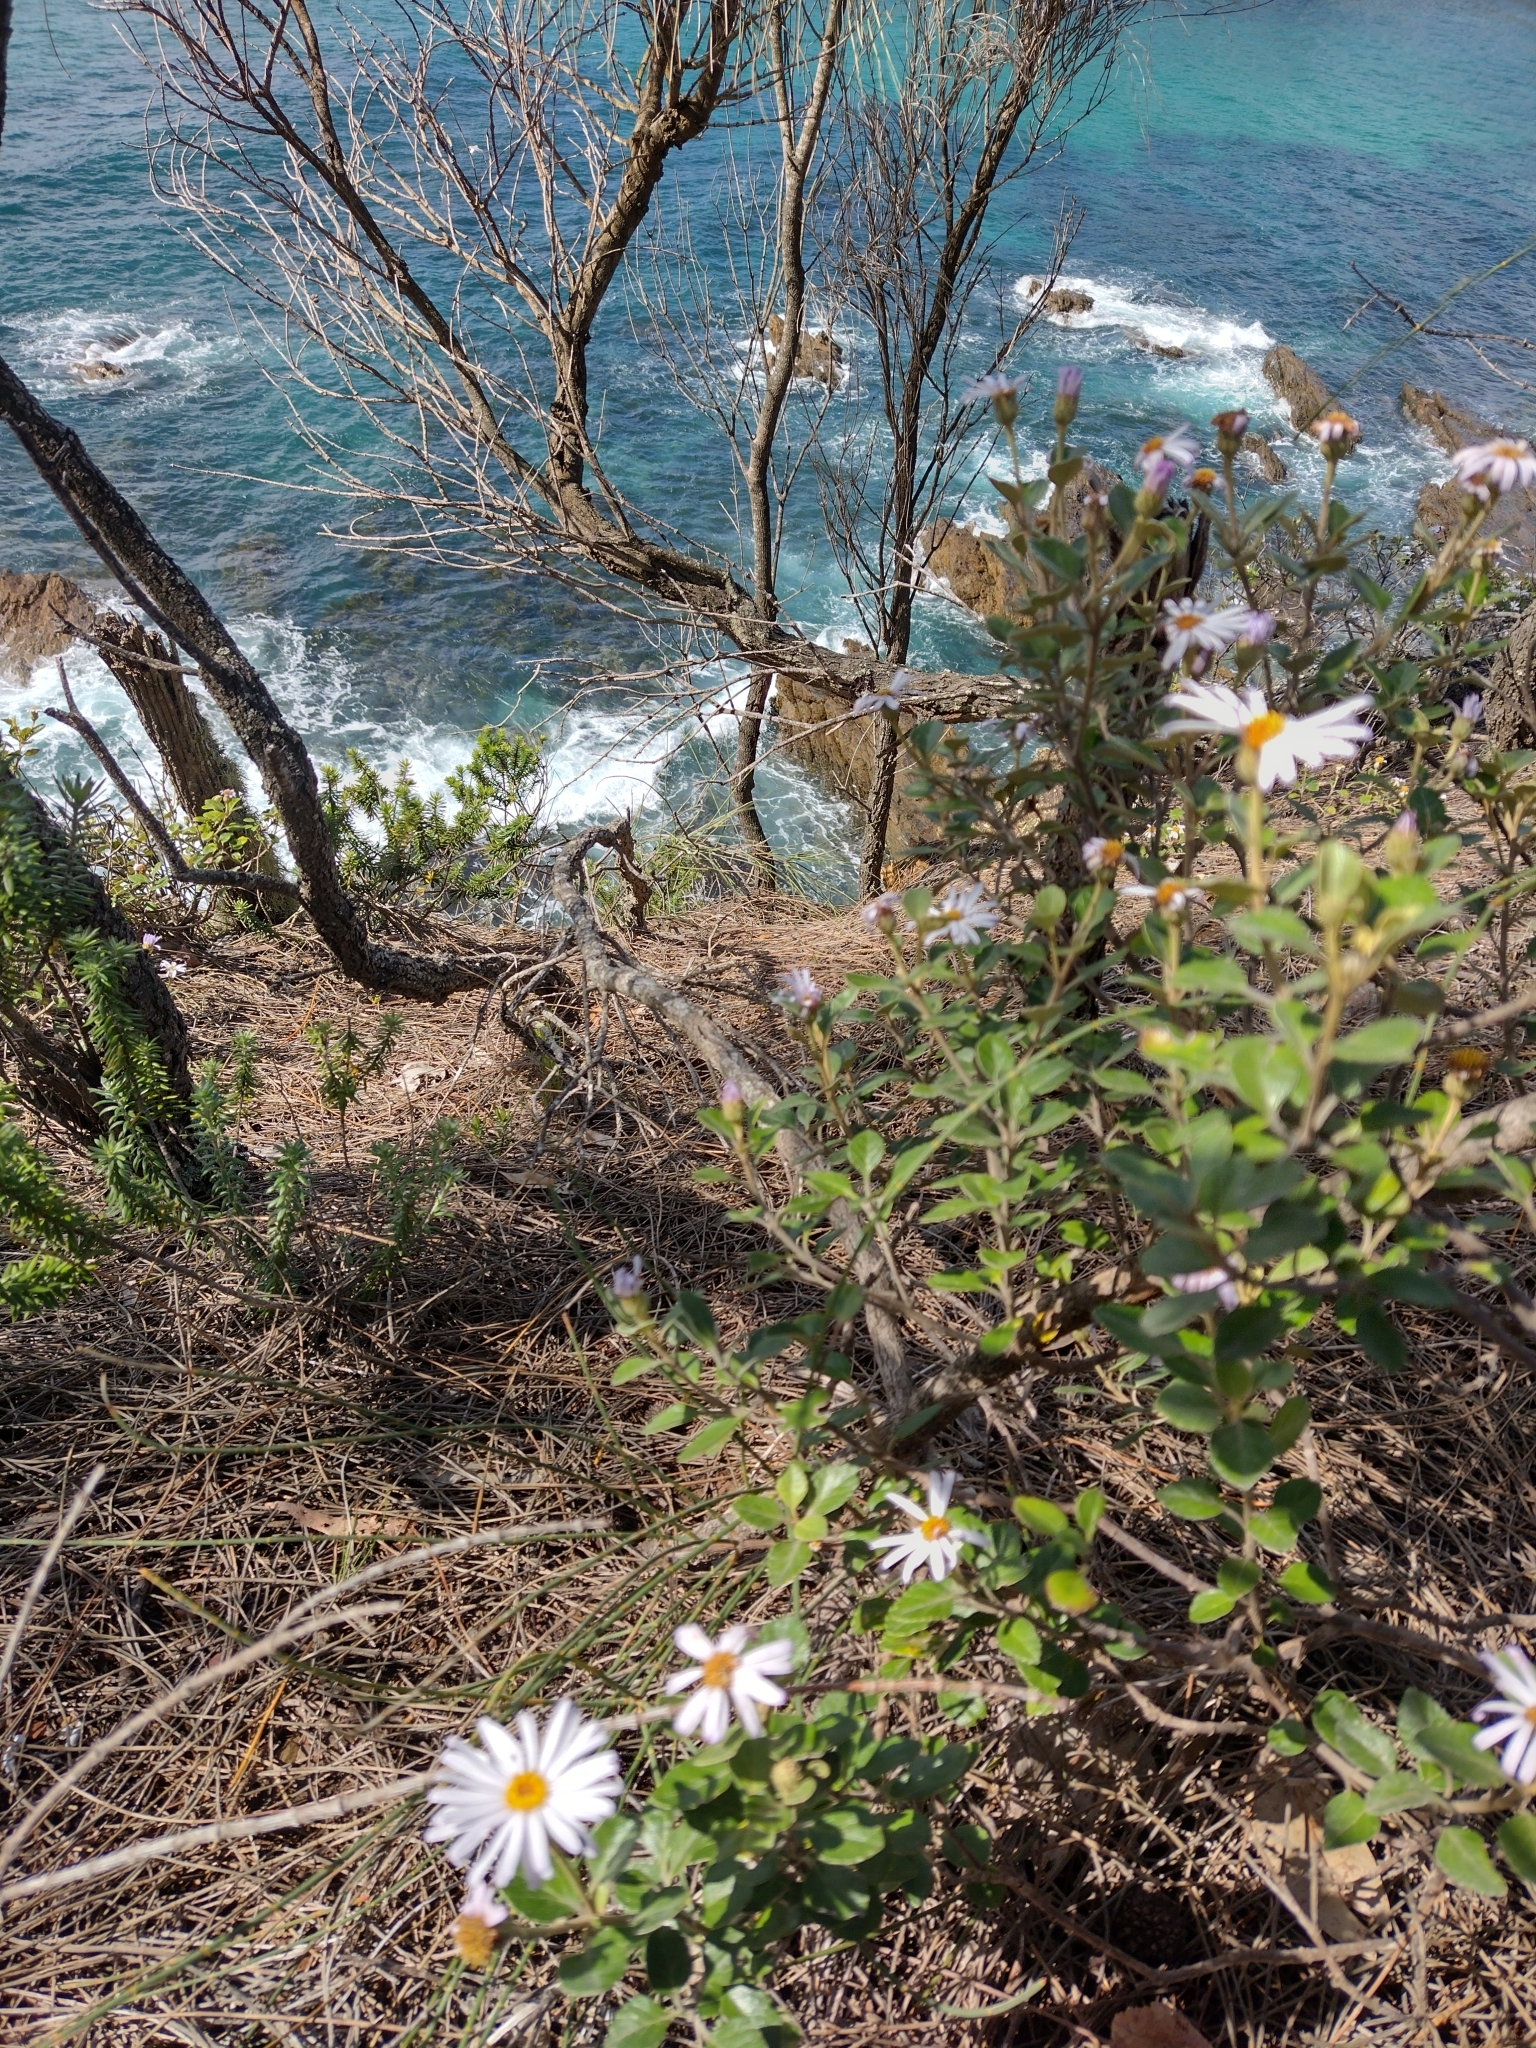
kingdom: Plantae
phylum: Tracheophyta
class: Magnoliopsida
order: Asterales
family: Asteraceae
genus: Olearia
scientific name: Olearia tomentosa
